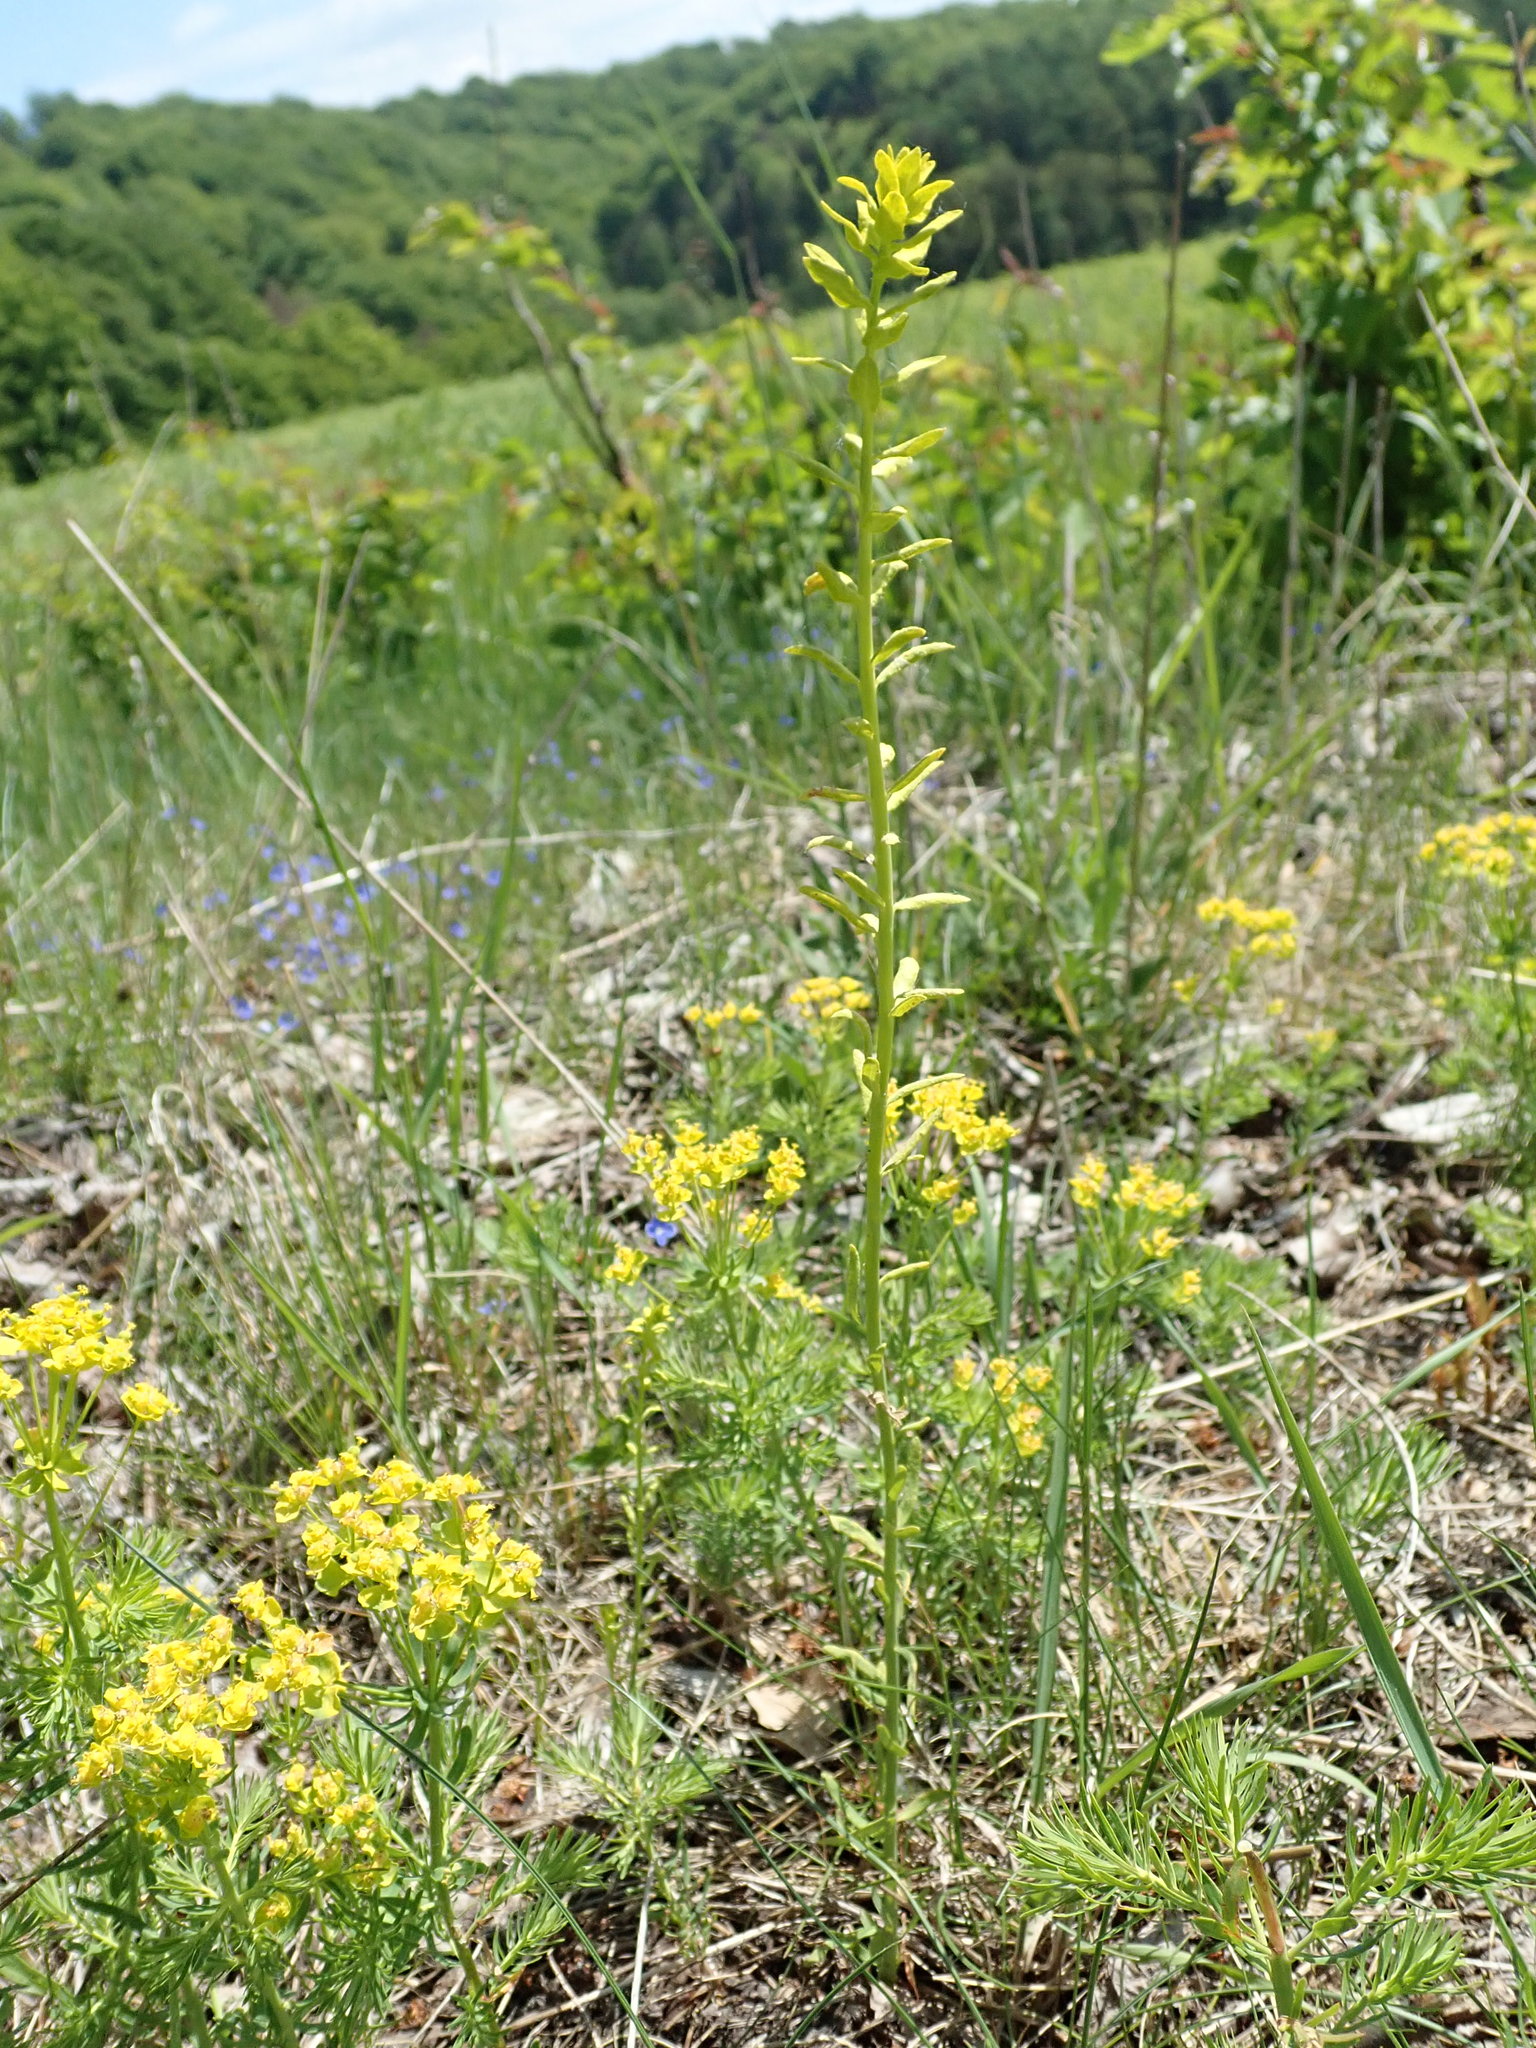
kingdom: Plantae
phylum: Tracheophyta
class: Magnoliopsida
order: Malpighiales
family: Euphorbiaceae
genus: Euphorbia
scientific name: Euphorbia cyparissias
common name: Cypress spurge
